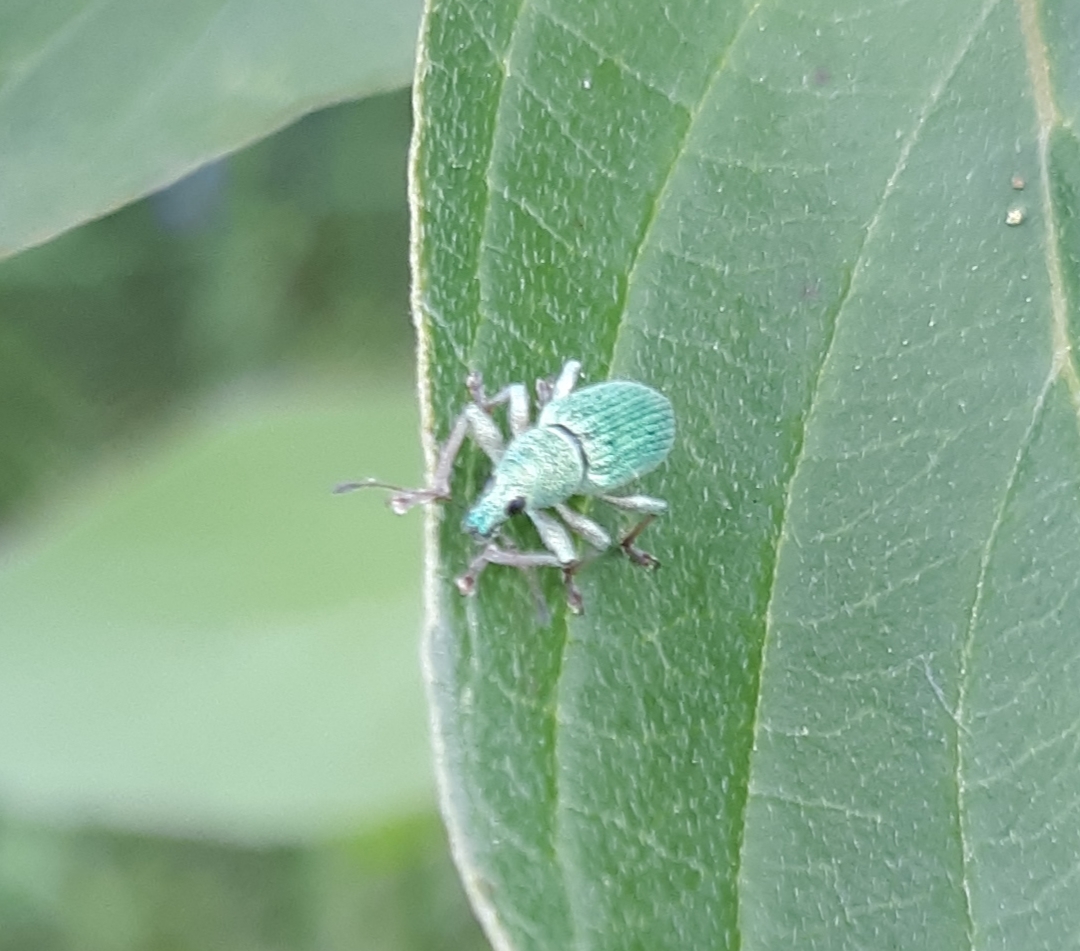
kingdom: Animalia
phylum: Arthropoda
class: Insecta
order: Coleoptera
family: Curculionidae
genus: Polydrusus
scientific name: Polydrusus formosus
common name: Weevil
